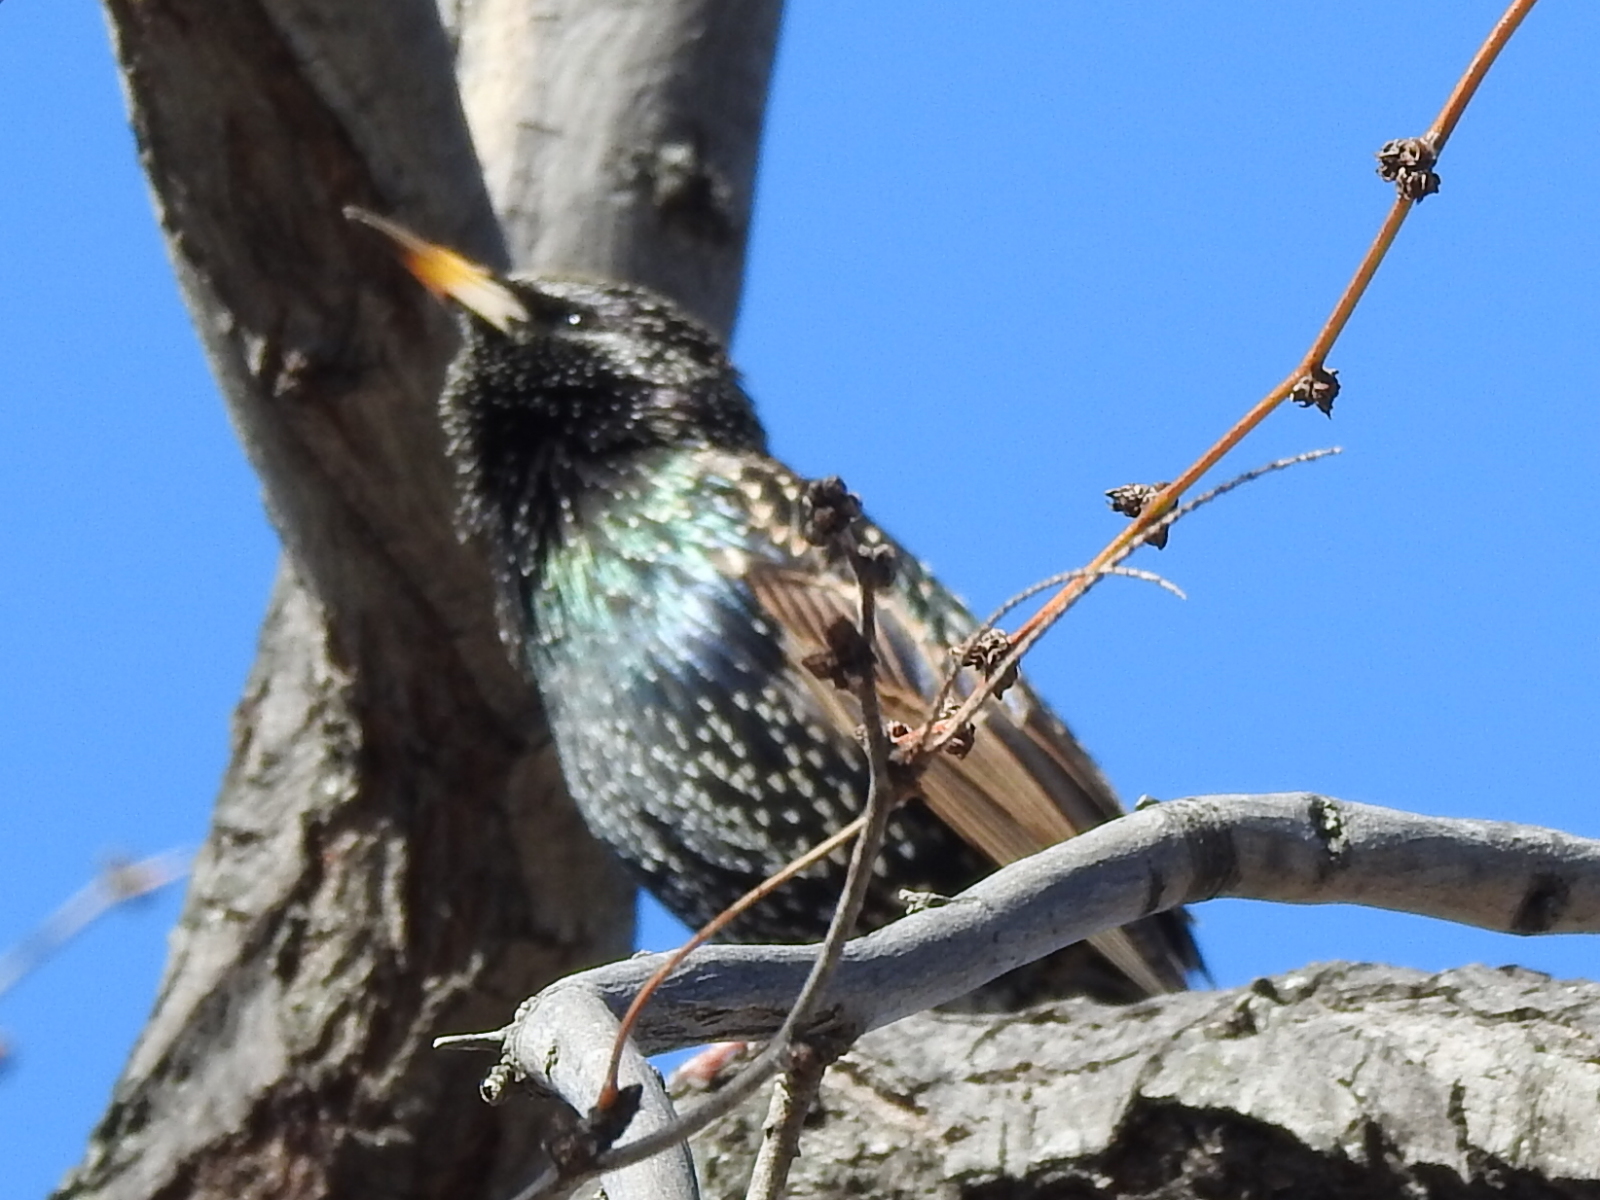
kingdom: Animalia
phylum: Chordata
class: Aves
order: Passeriformes
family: Sturnidae
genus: Sturnus
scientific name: Sturnus vulgaris
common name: Common starling
